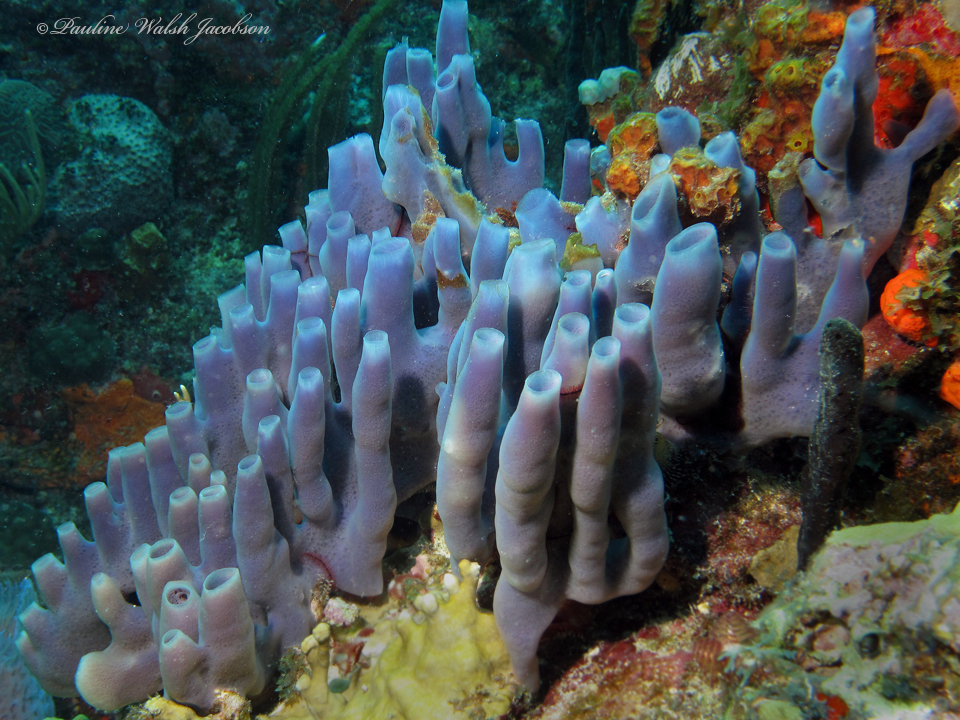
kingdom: Animalia
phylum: Porifera
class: Demospongiae
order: Haplosclerida
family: Callyspongiidae
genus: Callyspongia
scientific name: Callyspongia fallax
